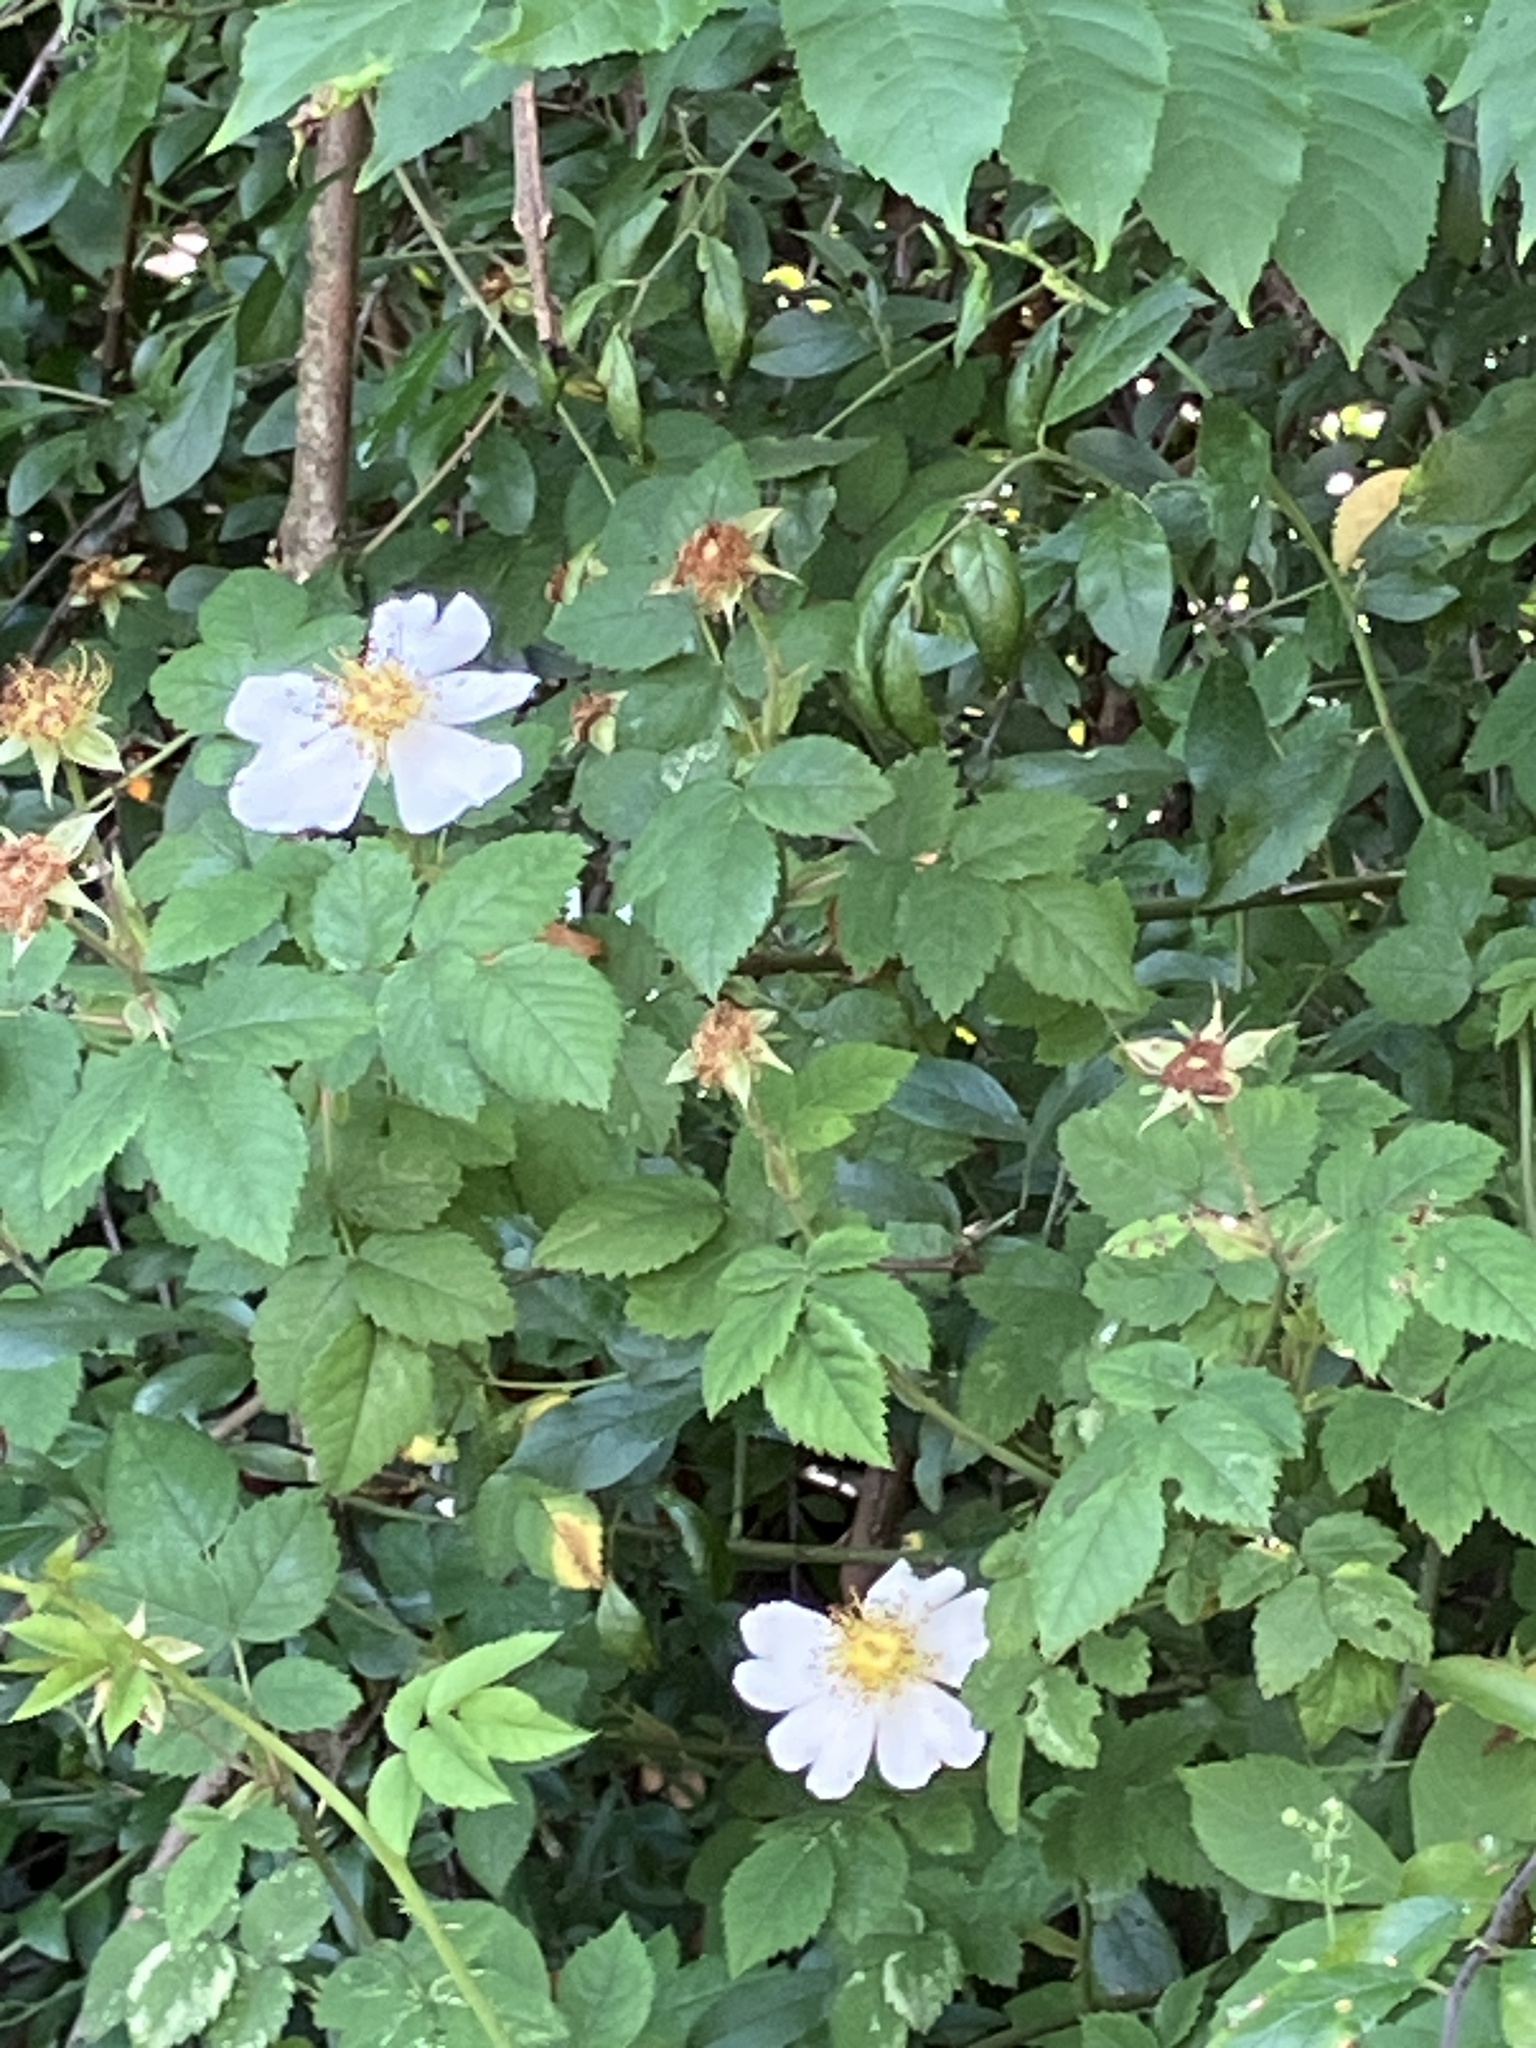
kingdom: Plantae
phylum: Tracheophyta
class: Magnoliopsida
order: Rosales
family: Rosaceae
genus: Rosa
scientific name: Rosa arvensis
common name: Field rose
